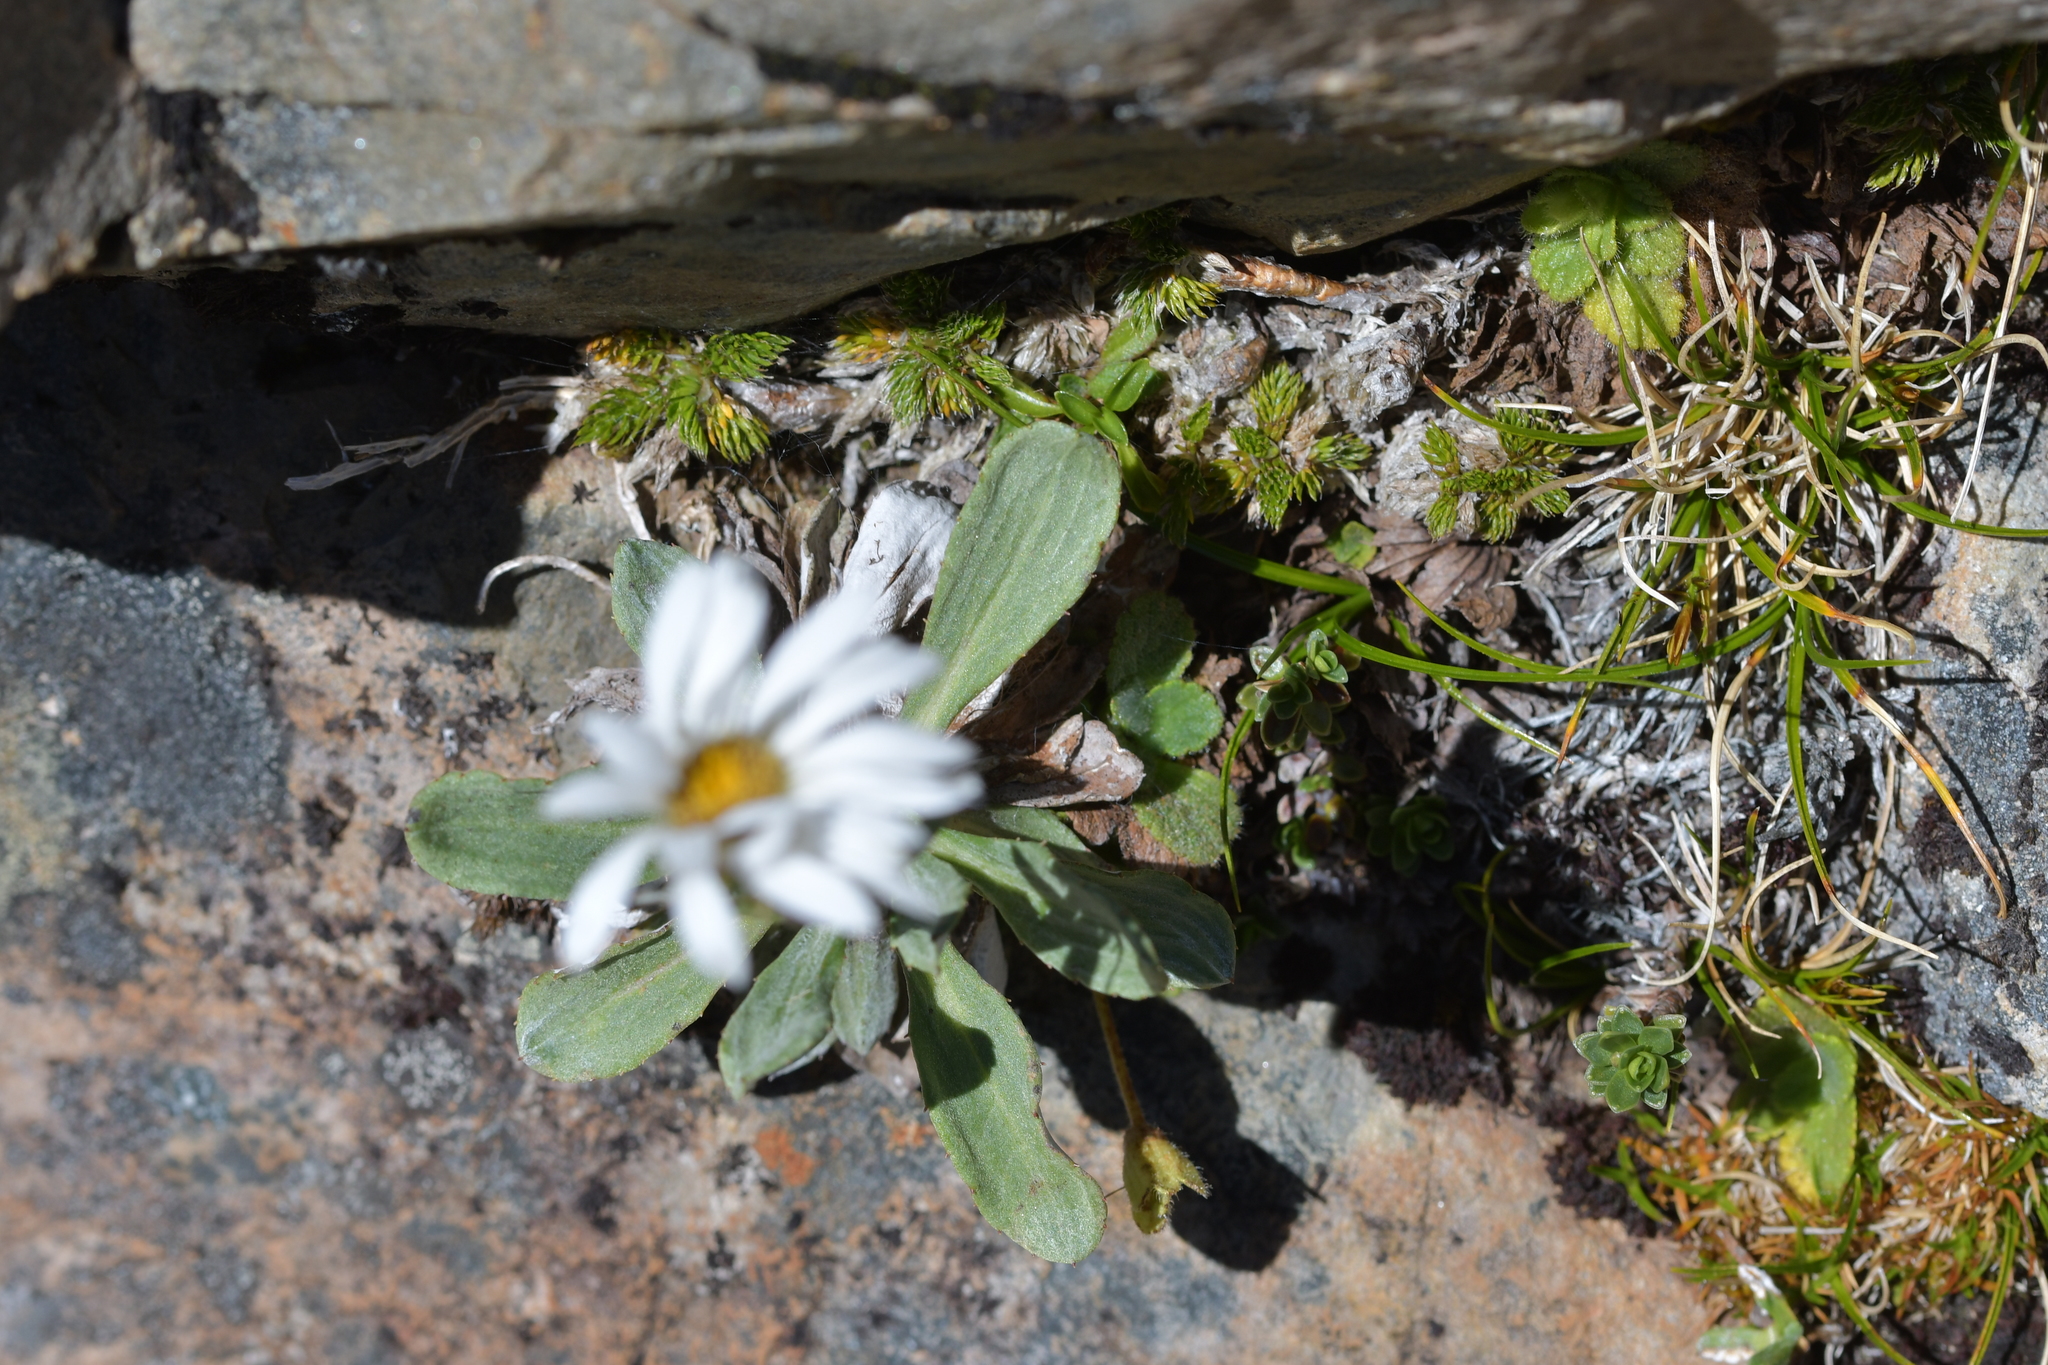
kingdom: Plantae
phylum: Tracheophyta
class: Magnoliopsida
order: Asterales
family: Asteraceae
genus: Celmisia
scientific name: Celmisia durietzii
